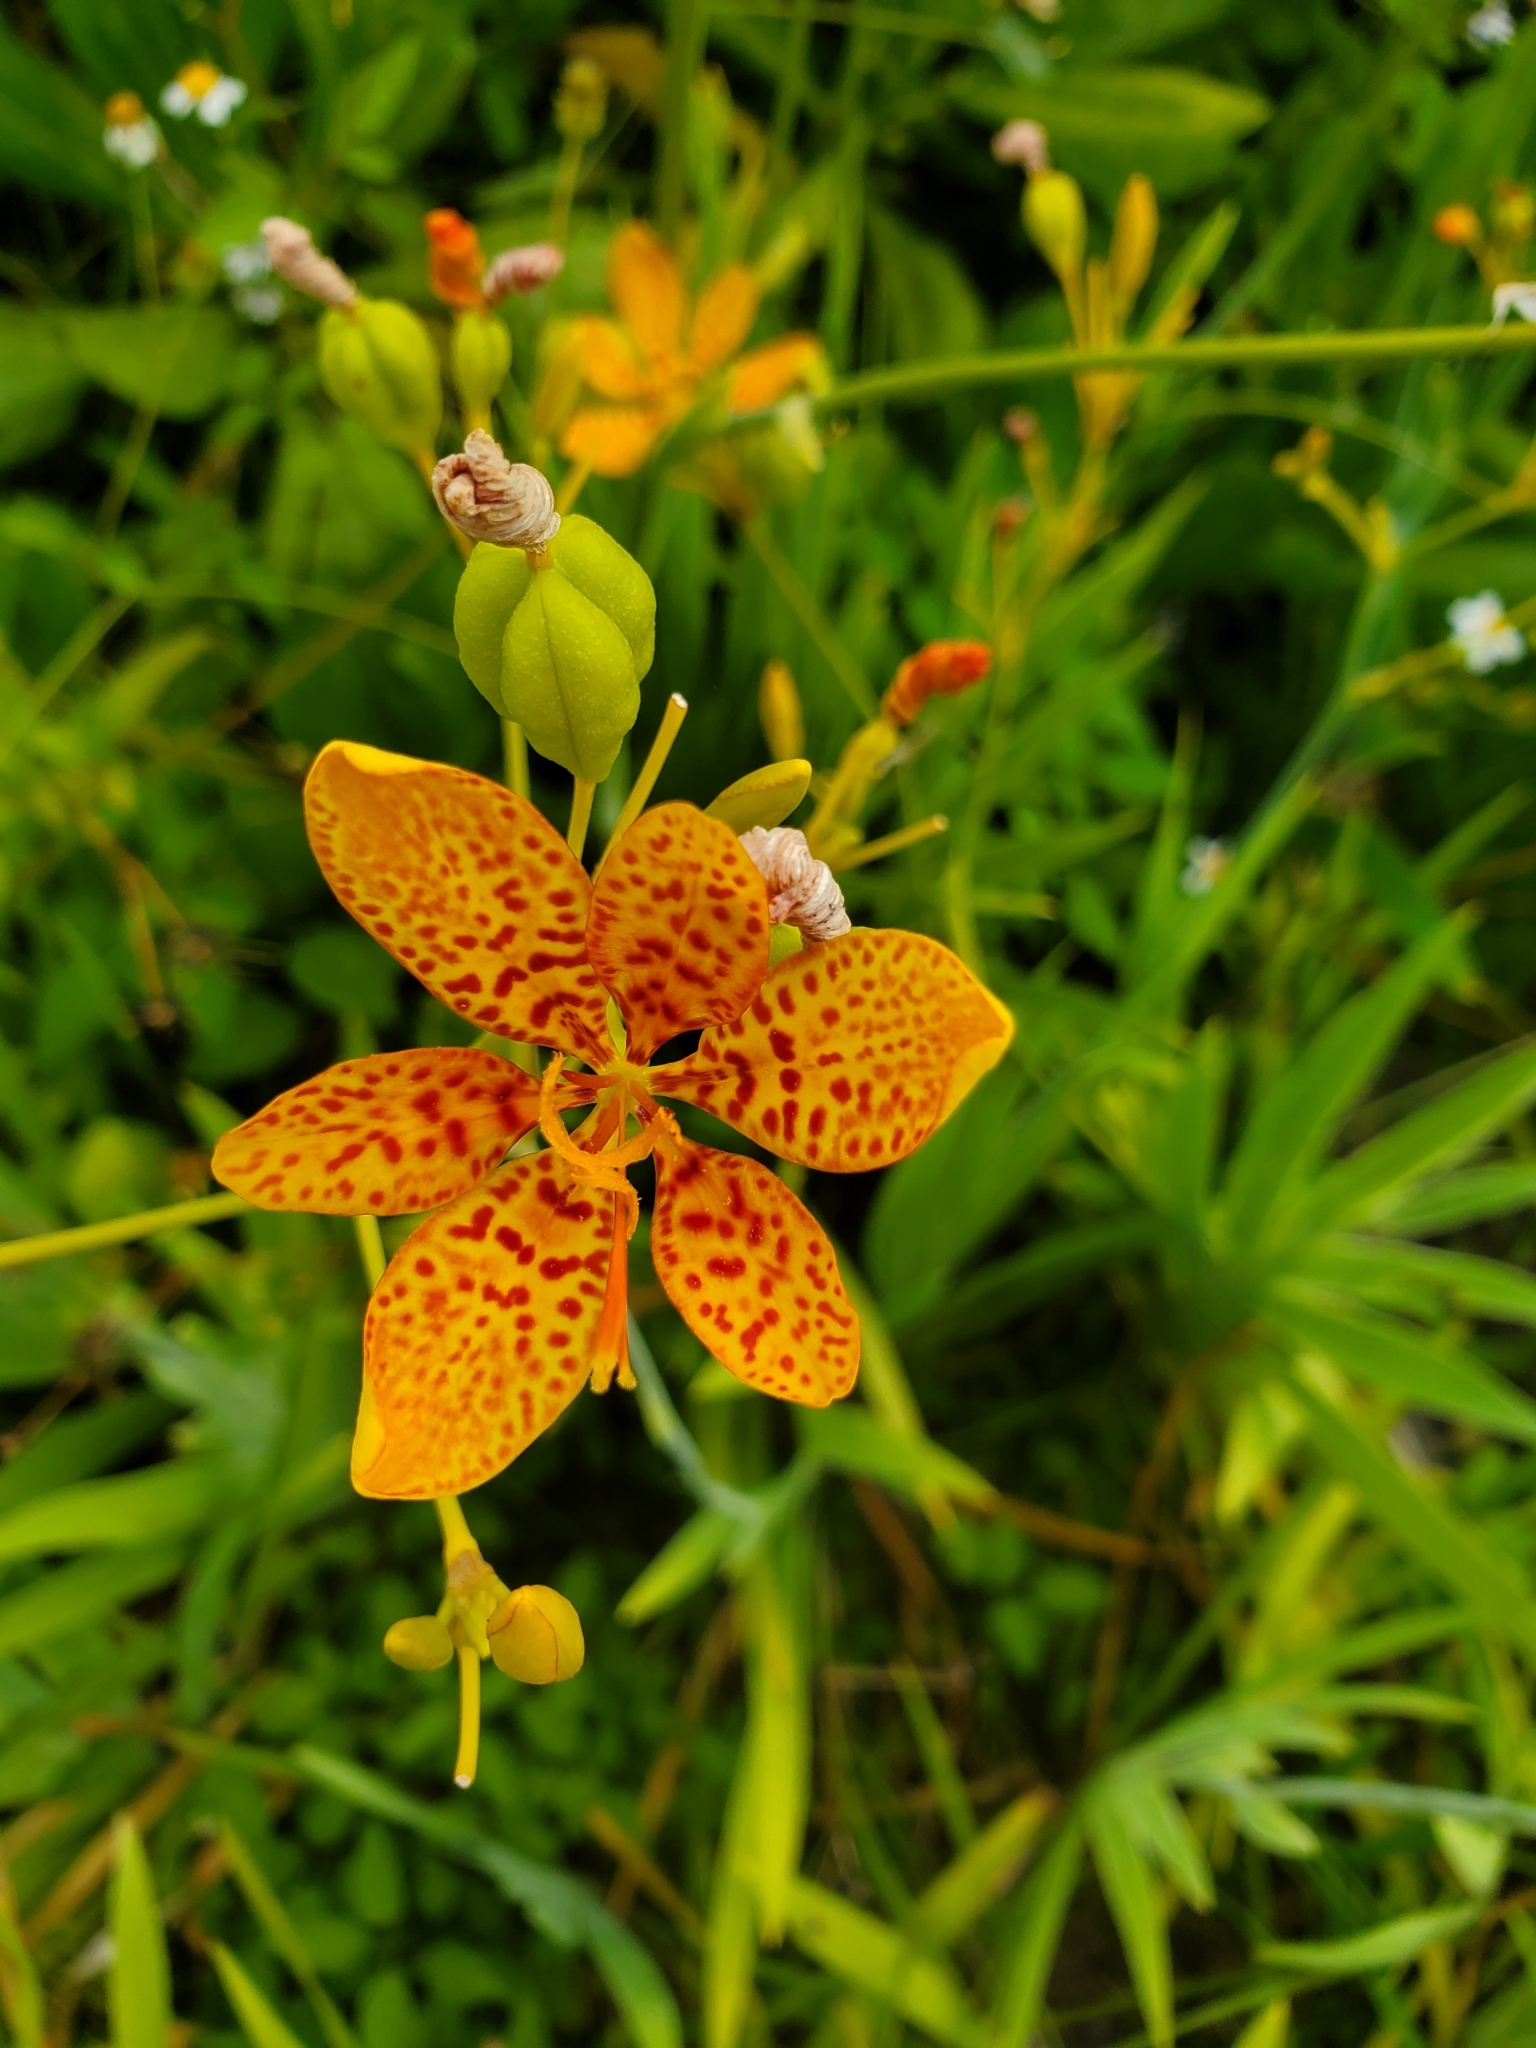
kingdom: Plantae
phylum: Tracheophyta
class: Liliopsida
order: Asparagales
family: Iridaceae
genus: Iris
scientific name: Iris domestica
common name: Belamcanda
